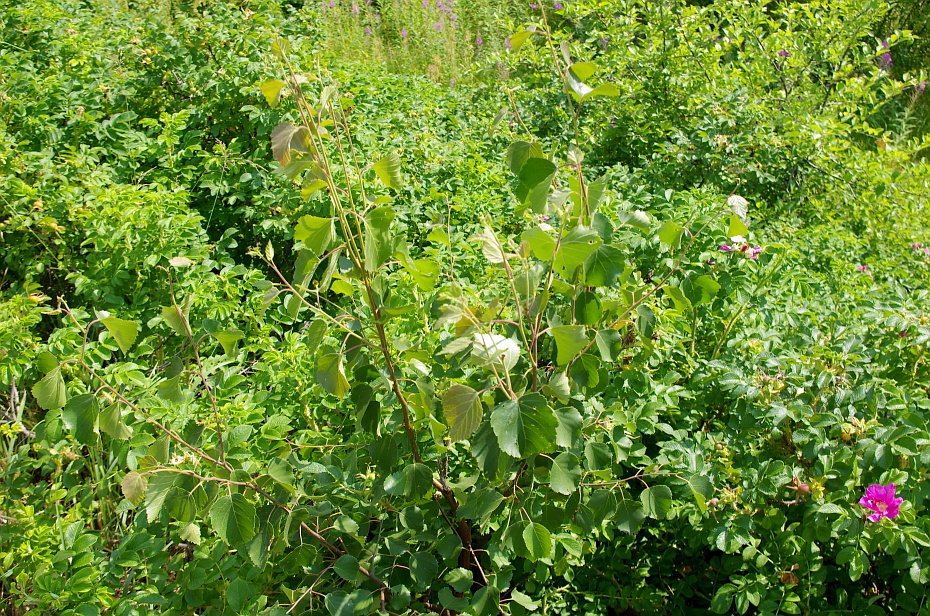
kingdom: Plantae
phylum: Tracheophyta
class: Magnoliopsida
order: Fagales
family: Betulaceae
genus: Betula
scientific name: Betula pubescens
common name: Downy birch
